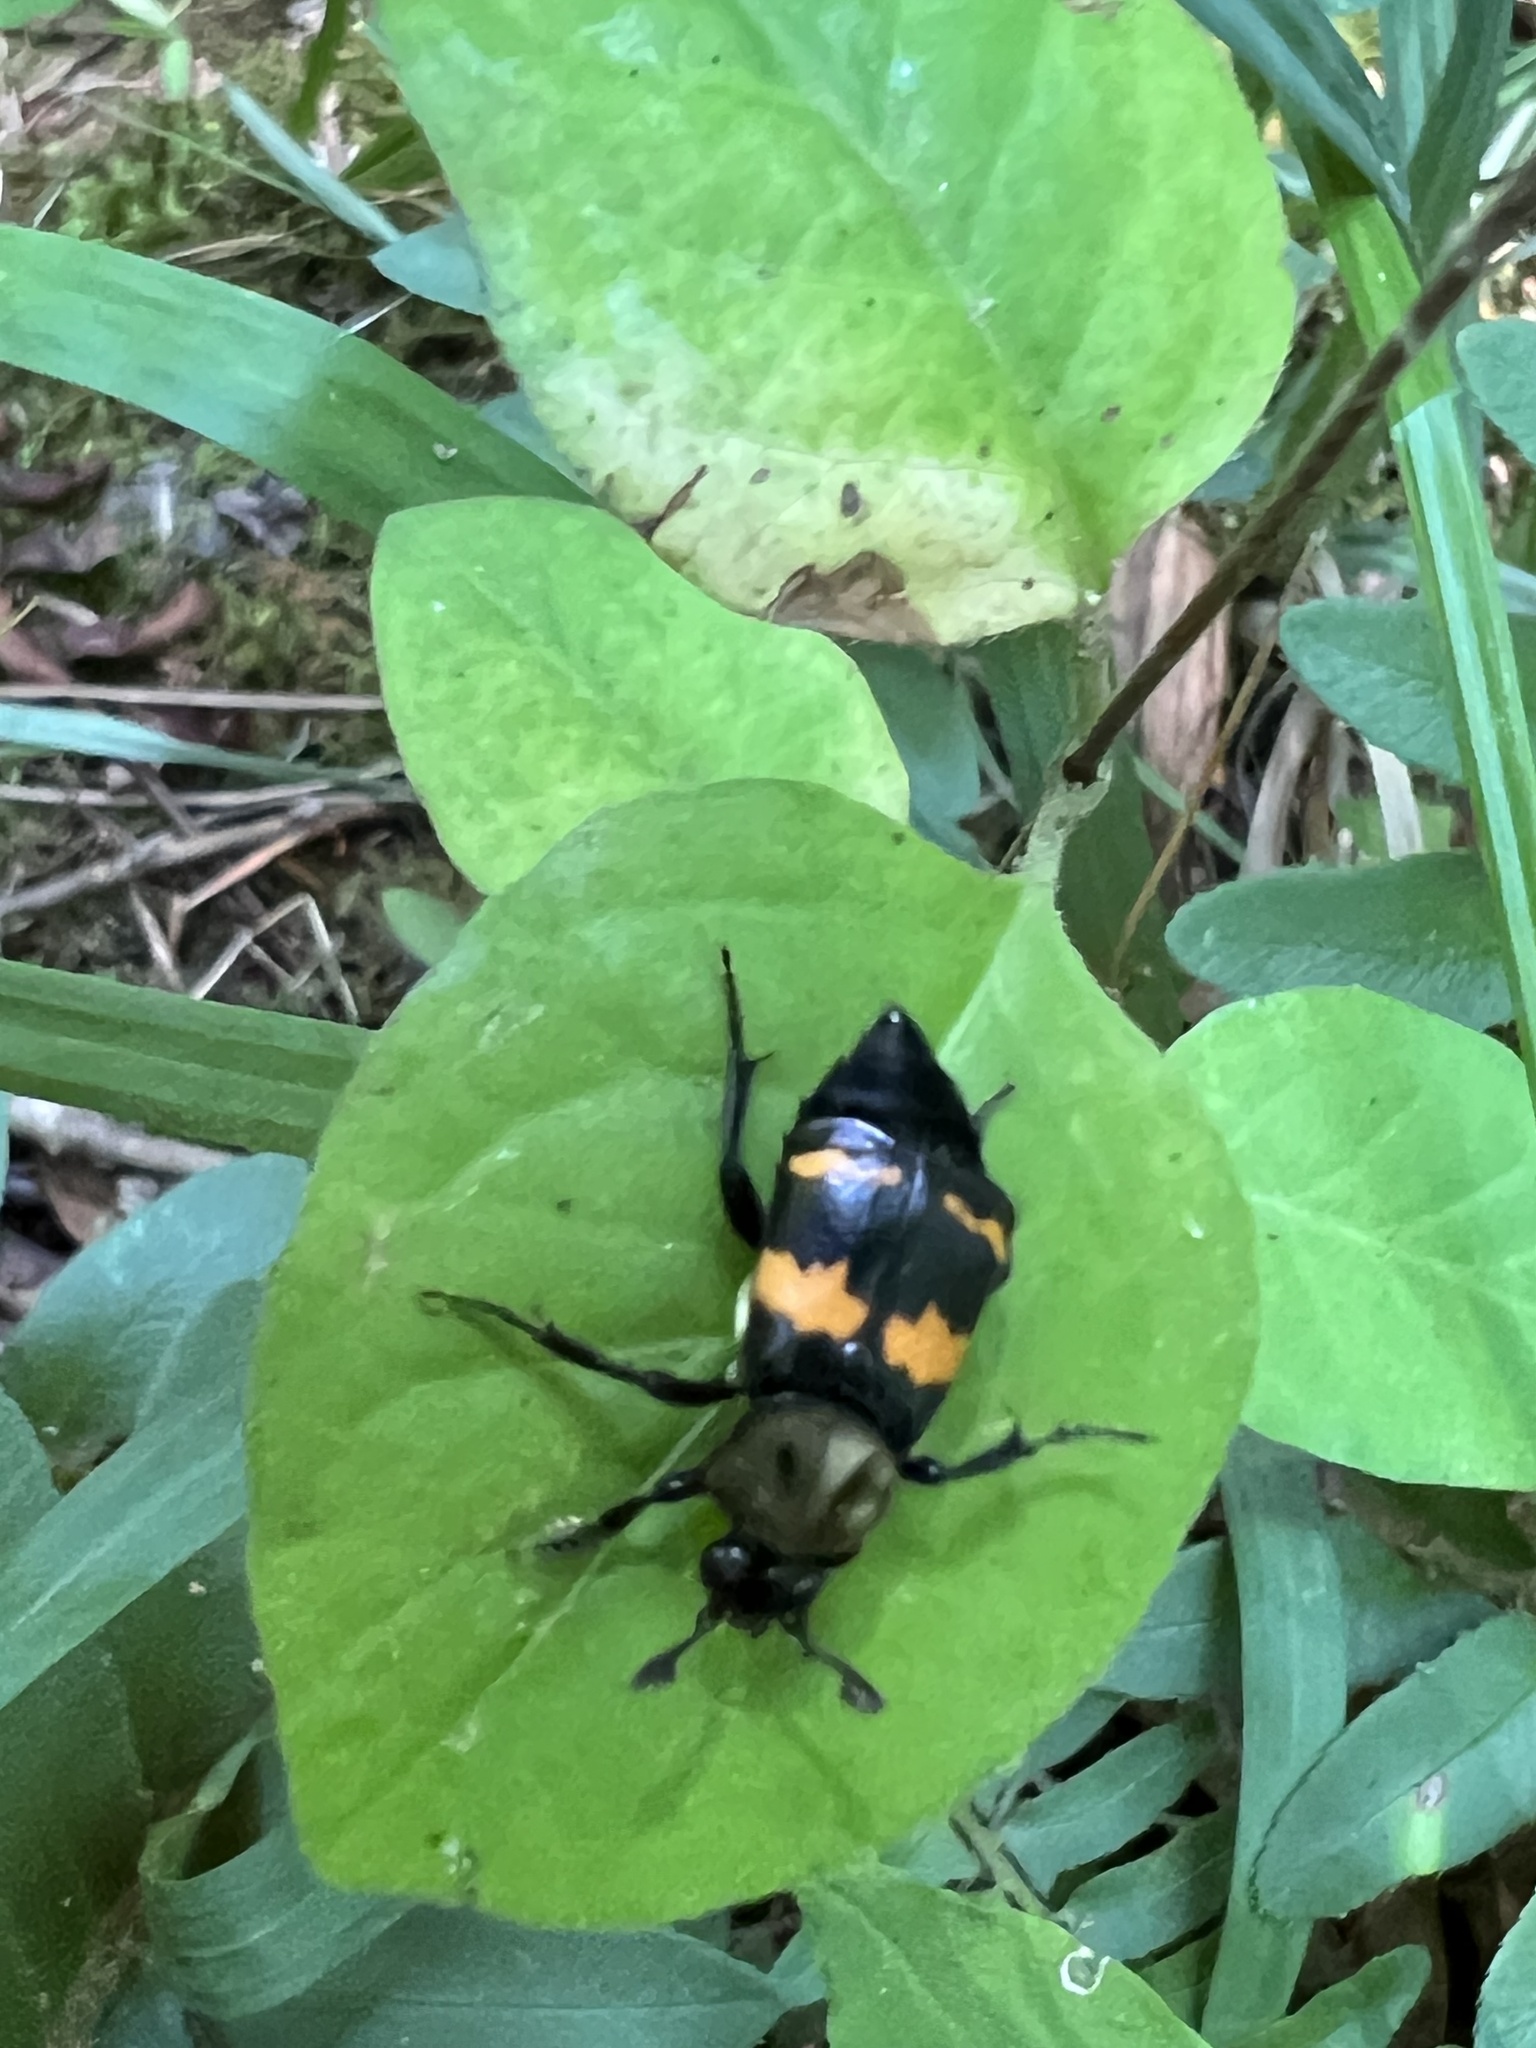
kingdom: Animalia
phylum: Arthropoda
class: Insecta
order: Coleoptera
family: Staphylinidae
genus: Nicrophorus
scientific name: Nicrophorus tomentosus
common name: Tomentose burying beetle
